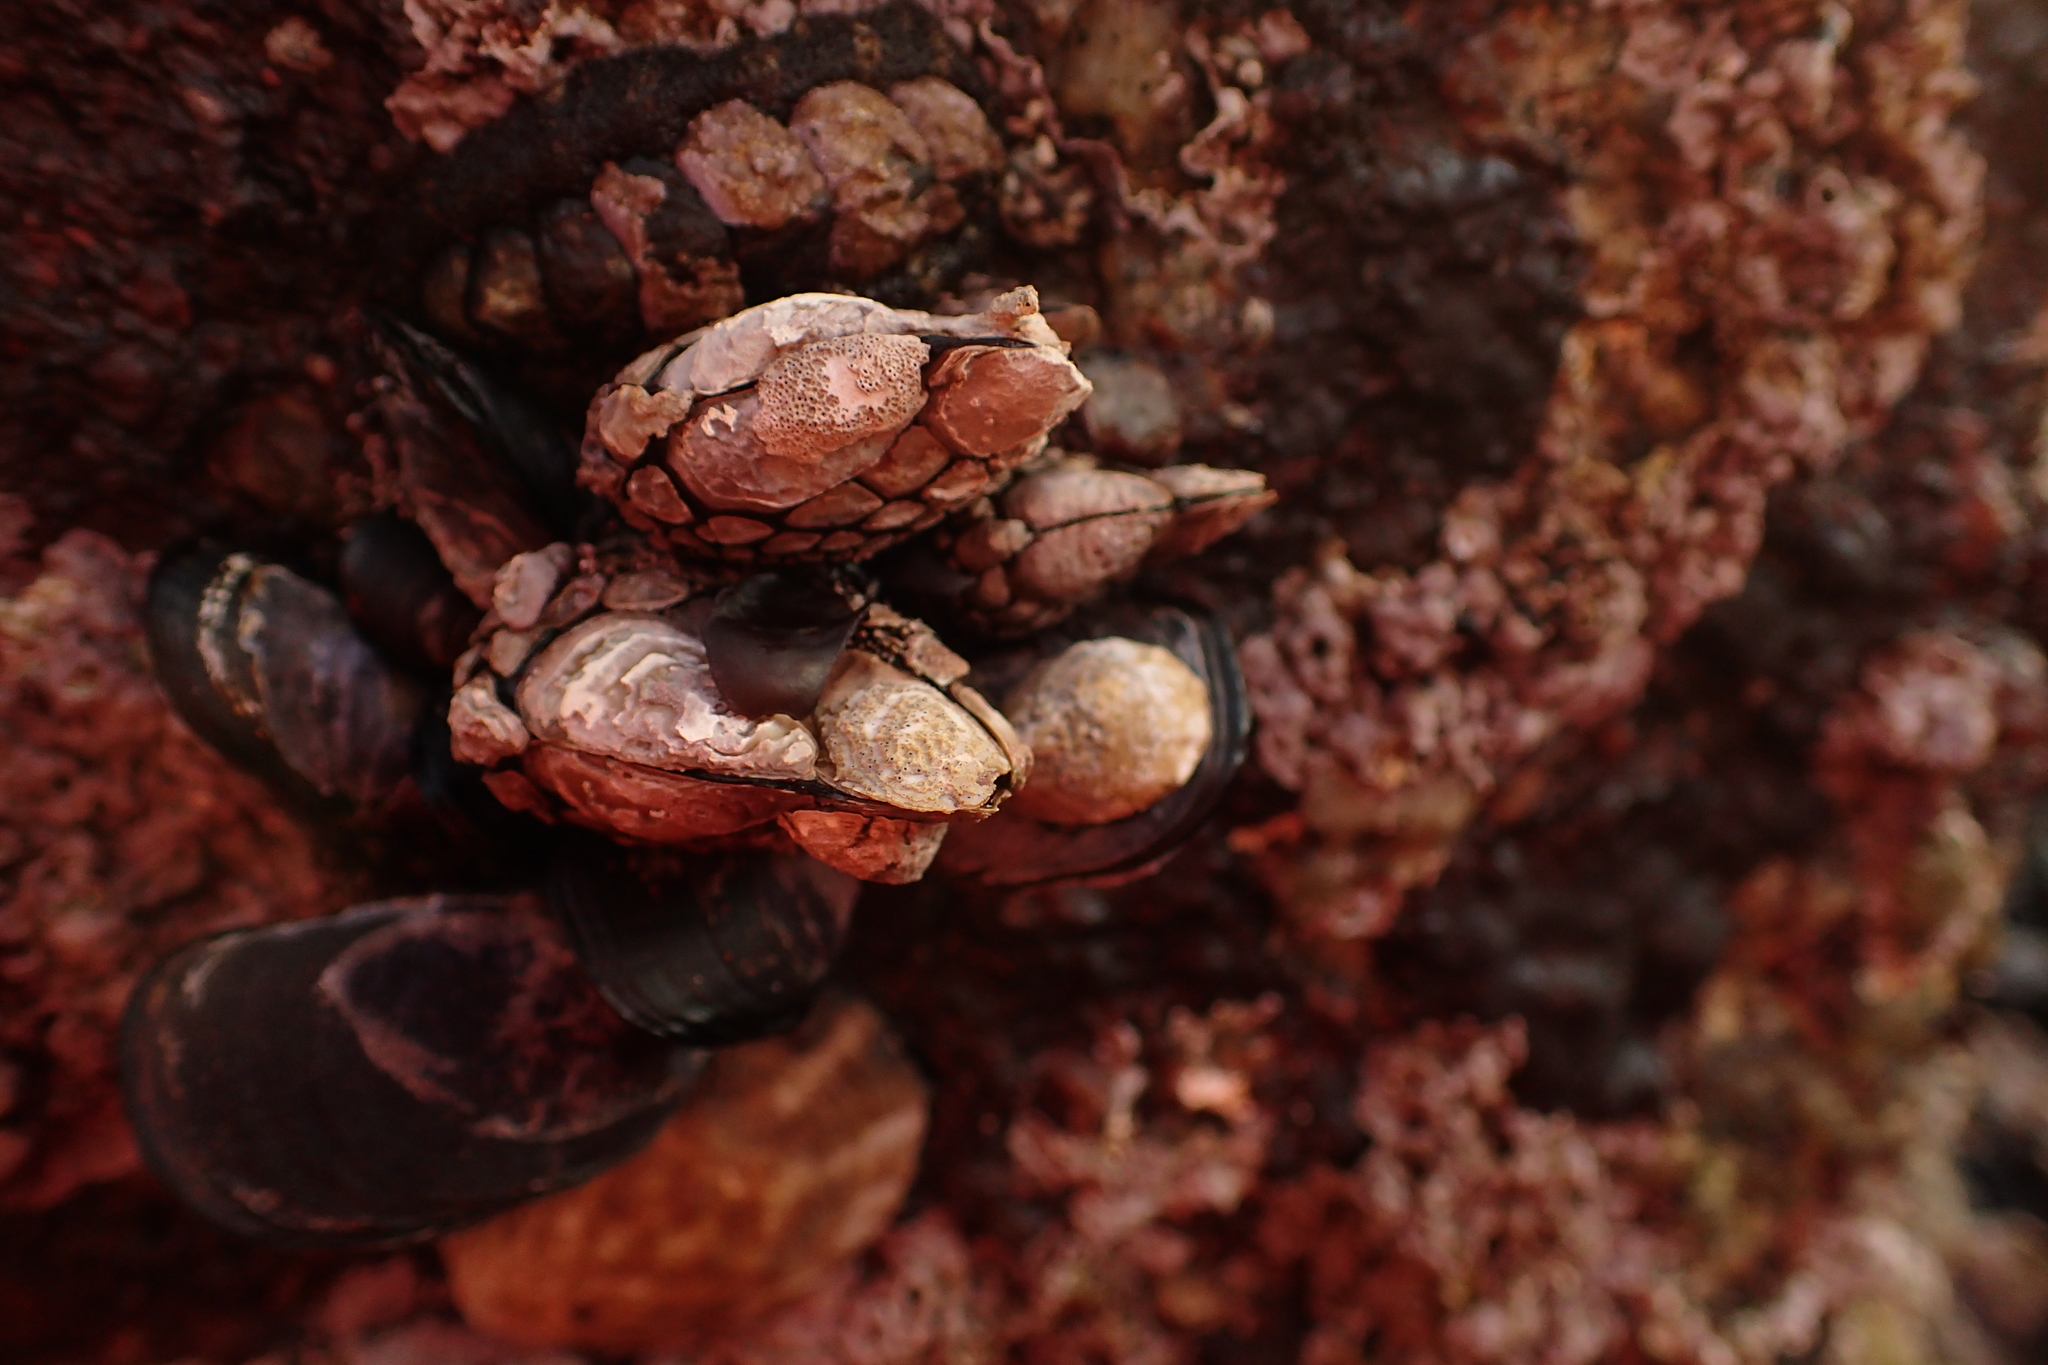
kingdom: Animalia
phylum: Arthropoda
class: Maxillopoda
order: Pedunculata
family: Pollicipedidae
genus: Pollicipes
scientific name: Pollicipes polymerus
